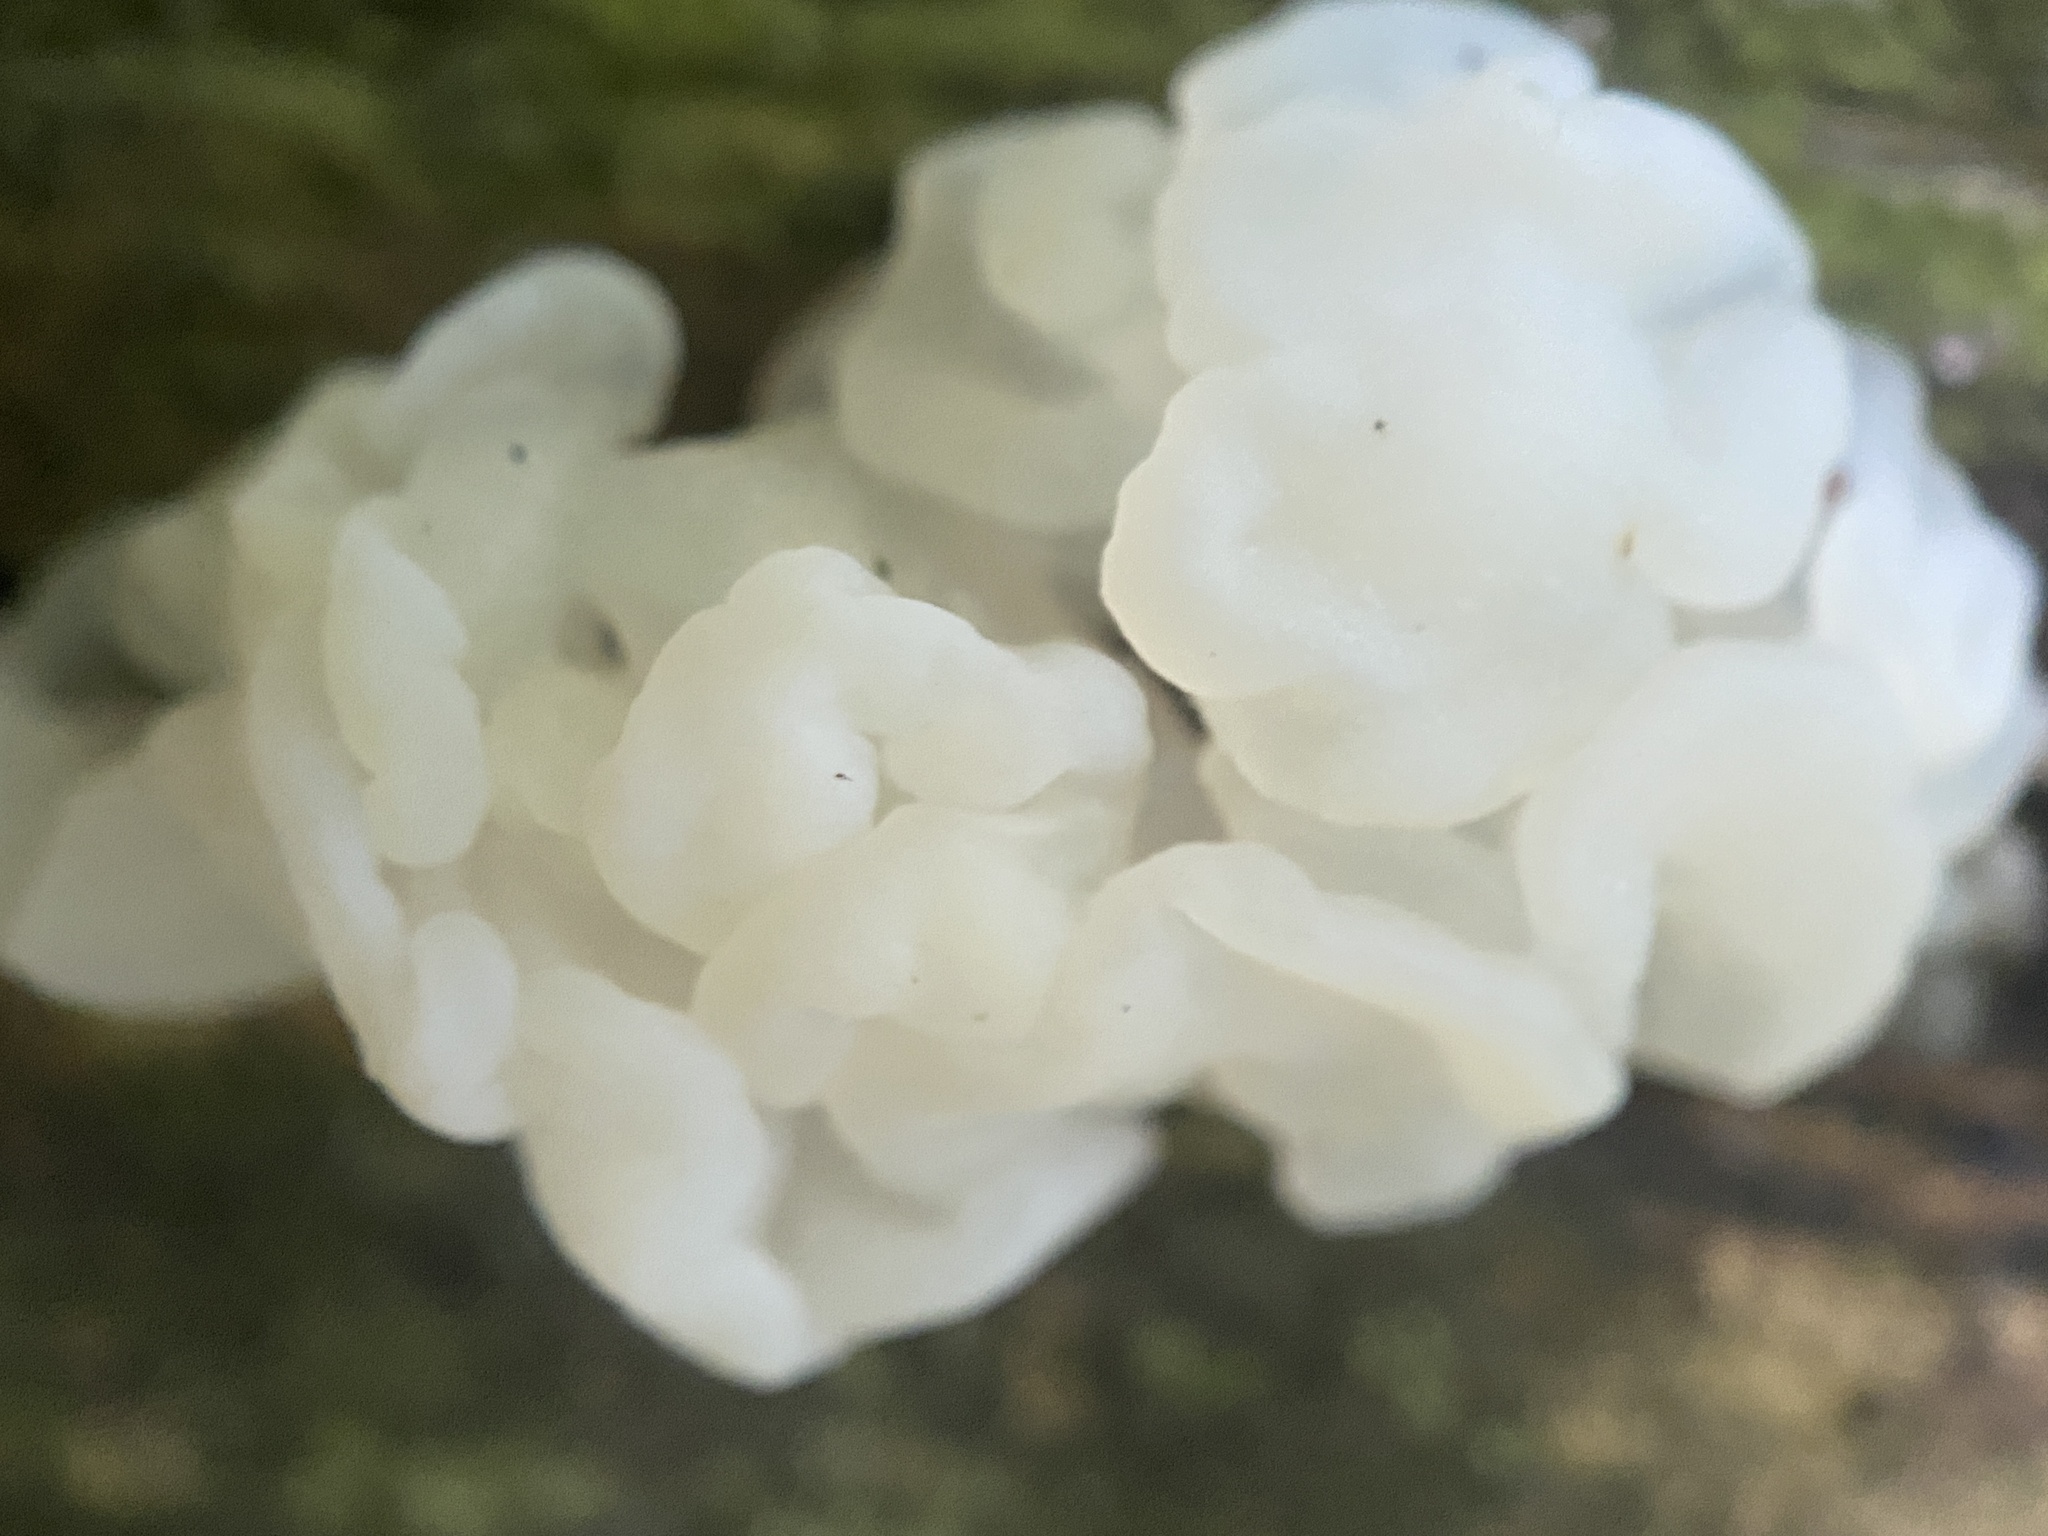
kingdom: Fungi
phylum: Basidiomycota
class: Agaricomycetes
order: Auriculariales
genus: Ductifera
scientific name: Ductifera pululahuana
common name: White jelly fungus
